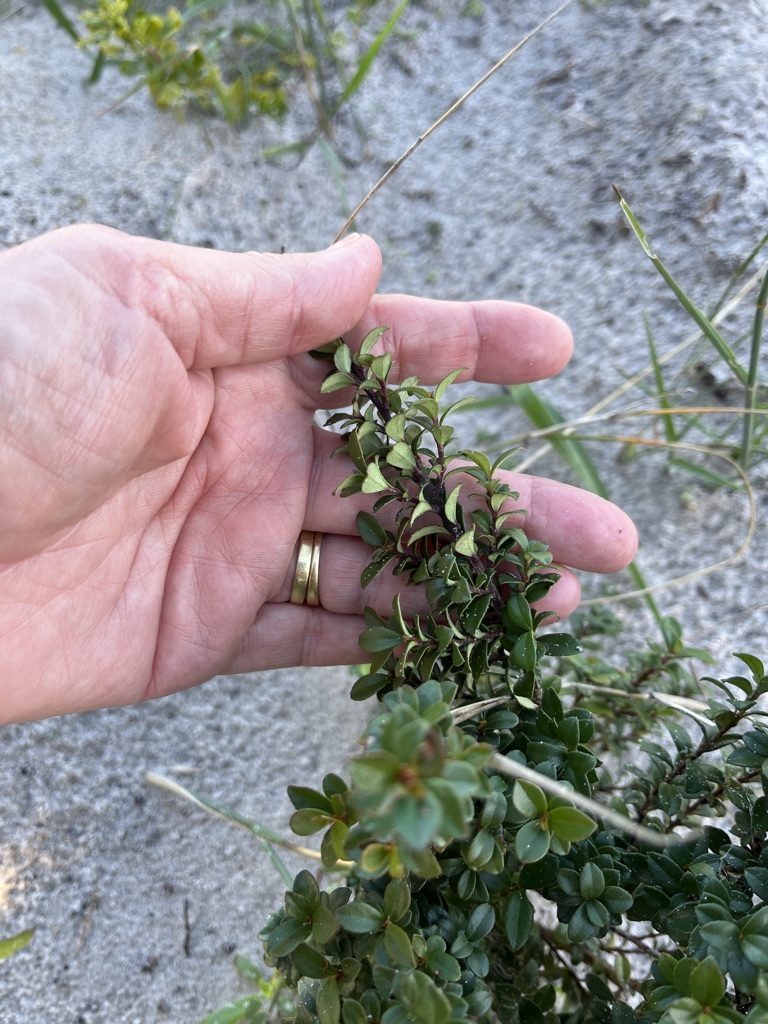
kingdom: Plantae
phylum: Tracheophyta
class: Magnoliopsida
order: Ericales
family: Primulaceae
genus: Myrsine
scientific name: Myrsine africana
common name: African-boxwood
